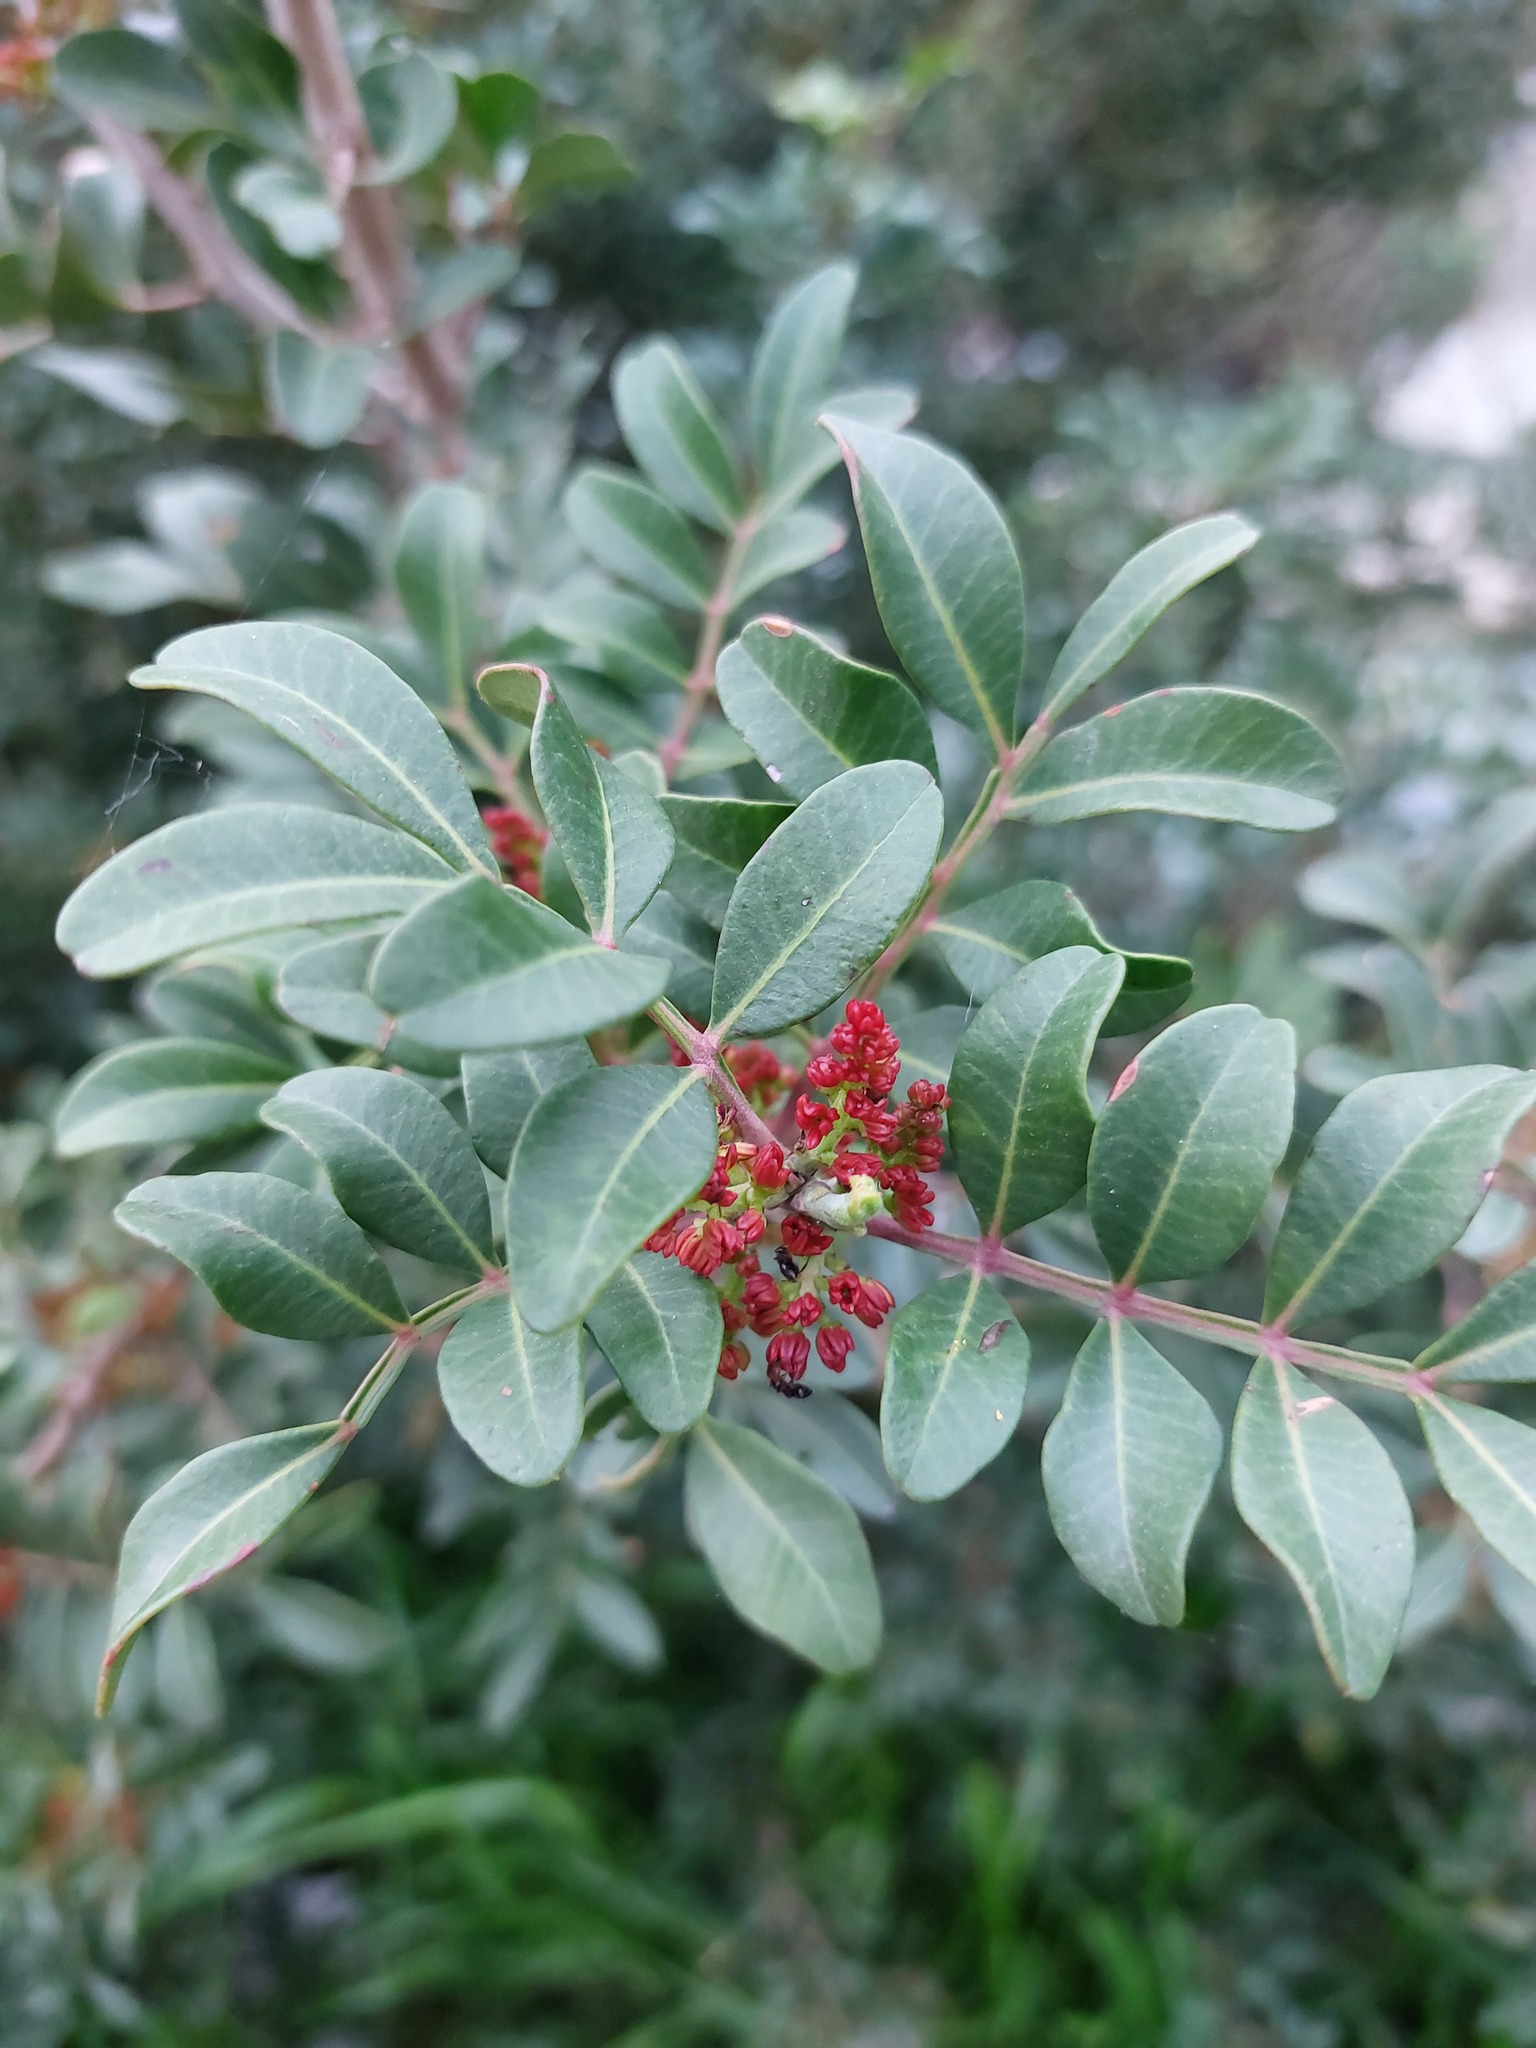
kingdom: Plantae
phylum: Tracheophyta
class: Magnoliopsida
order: Sapindales
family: Anacardiaceae
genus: Pistacia
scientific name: Pistacia lentiscus
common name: Lentisk
